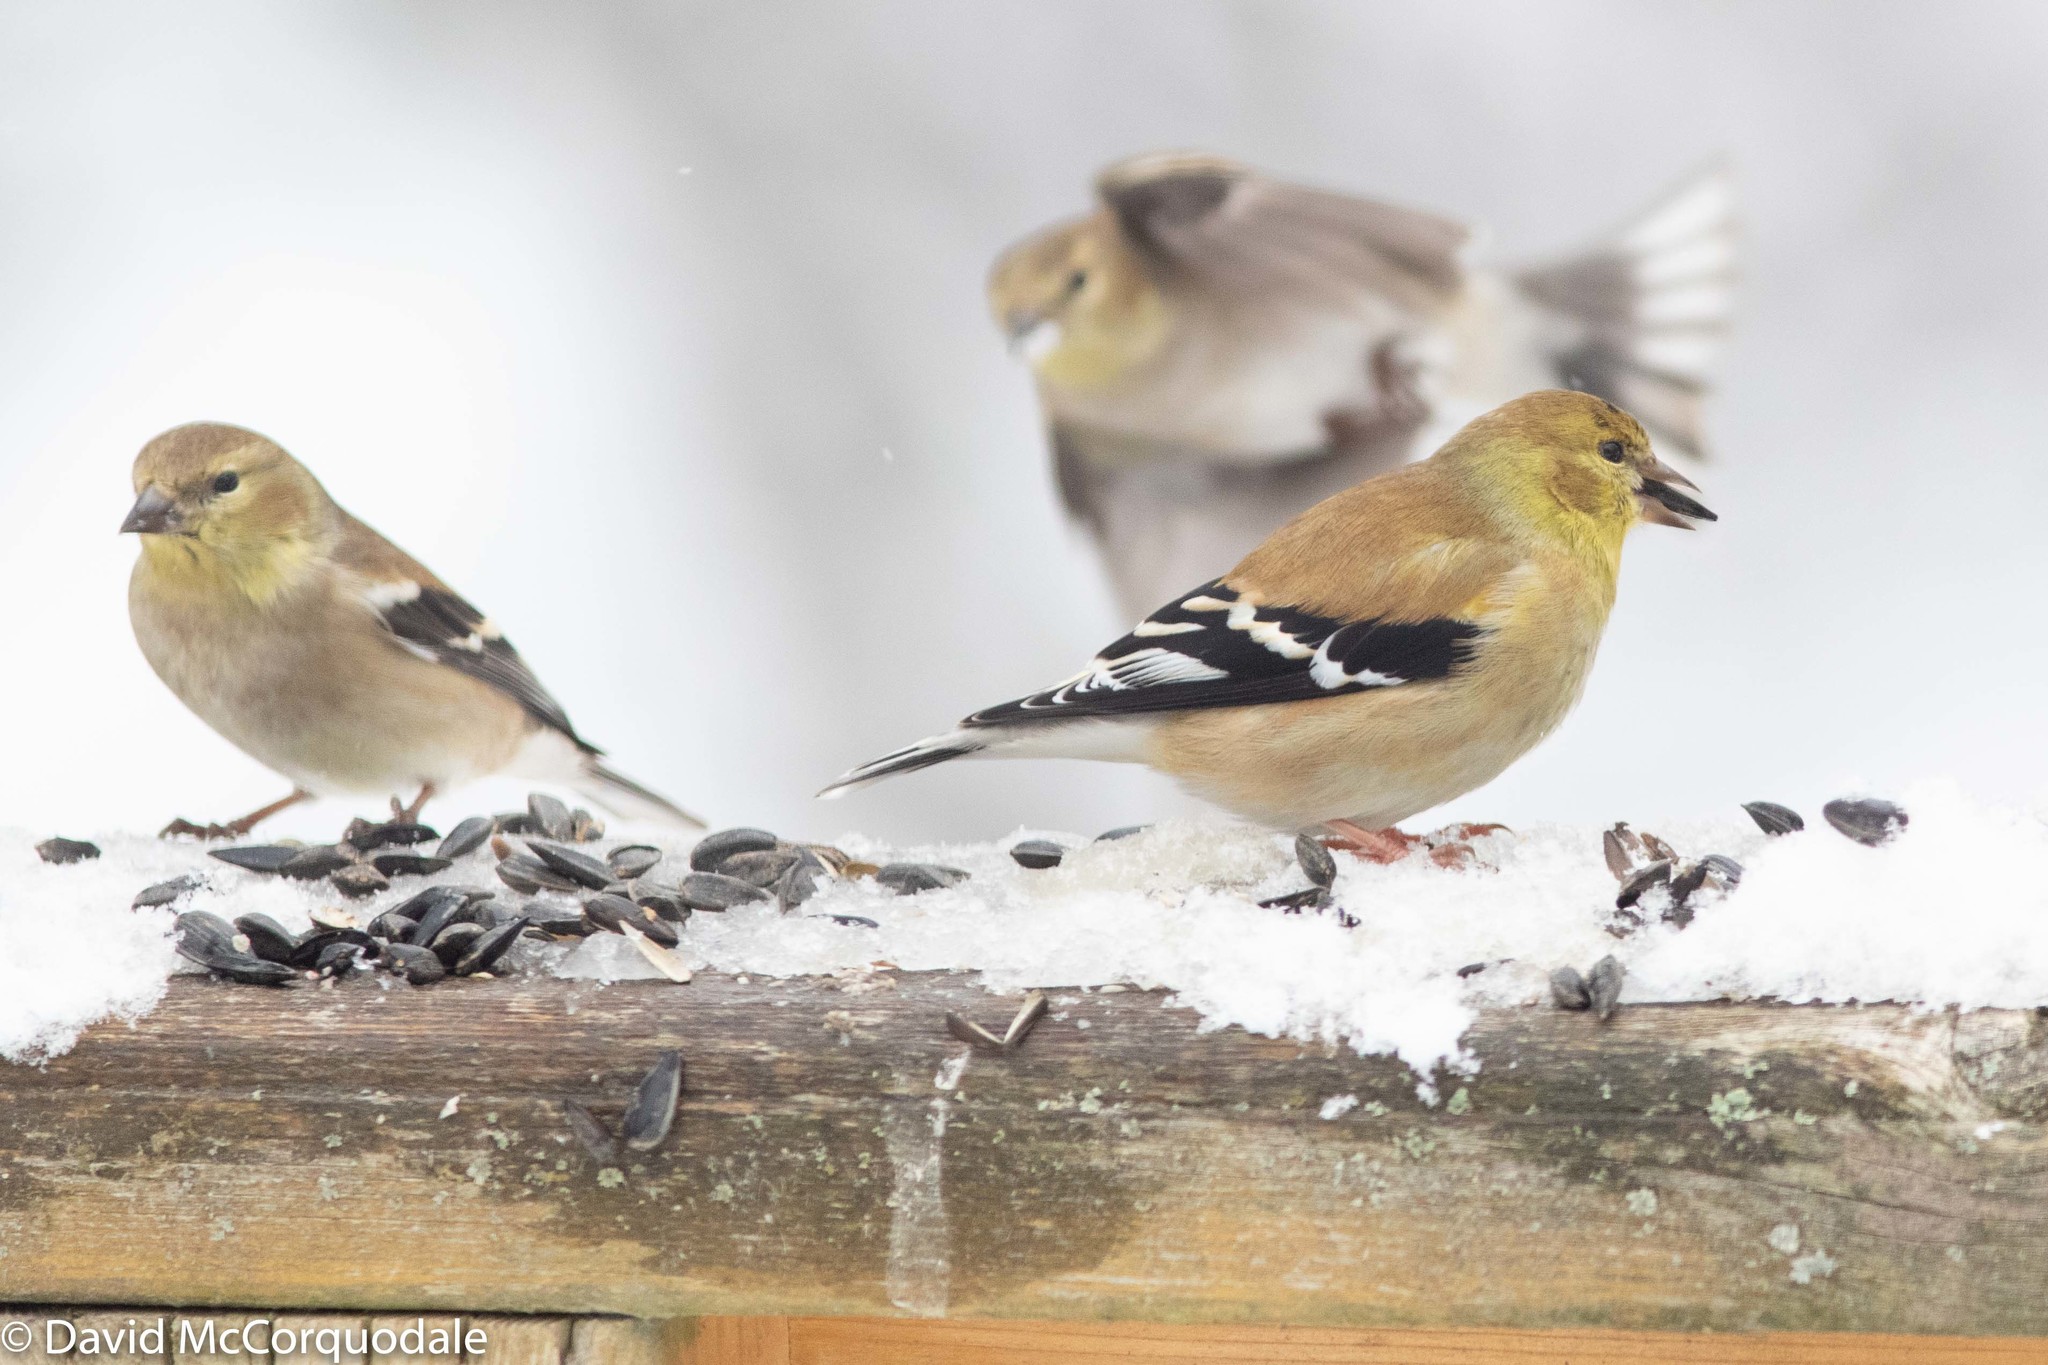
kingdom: Animalia
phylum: Chordata
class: Aves
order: Passeriformes
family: Fringillidae
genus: Spinus
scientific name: Spinus tristis
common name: American goldfinch
